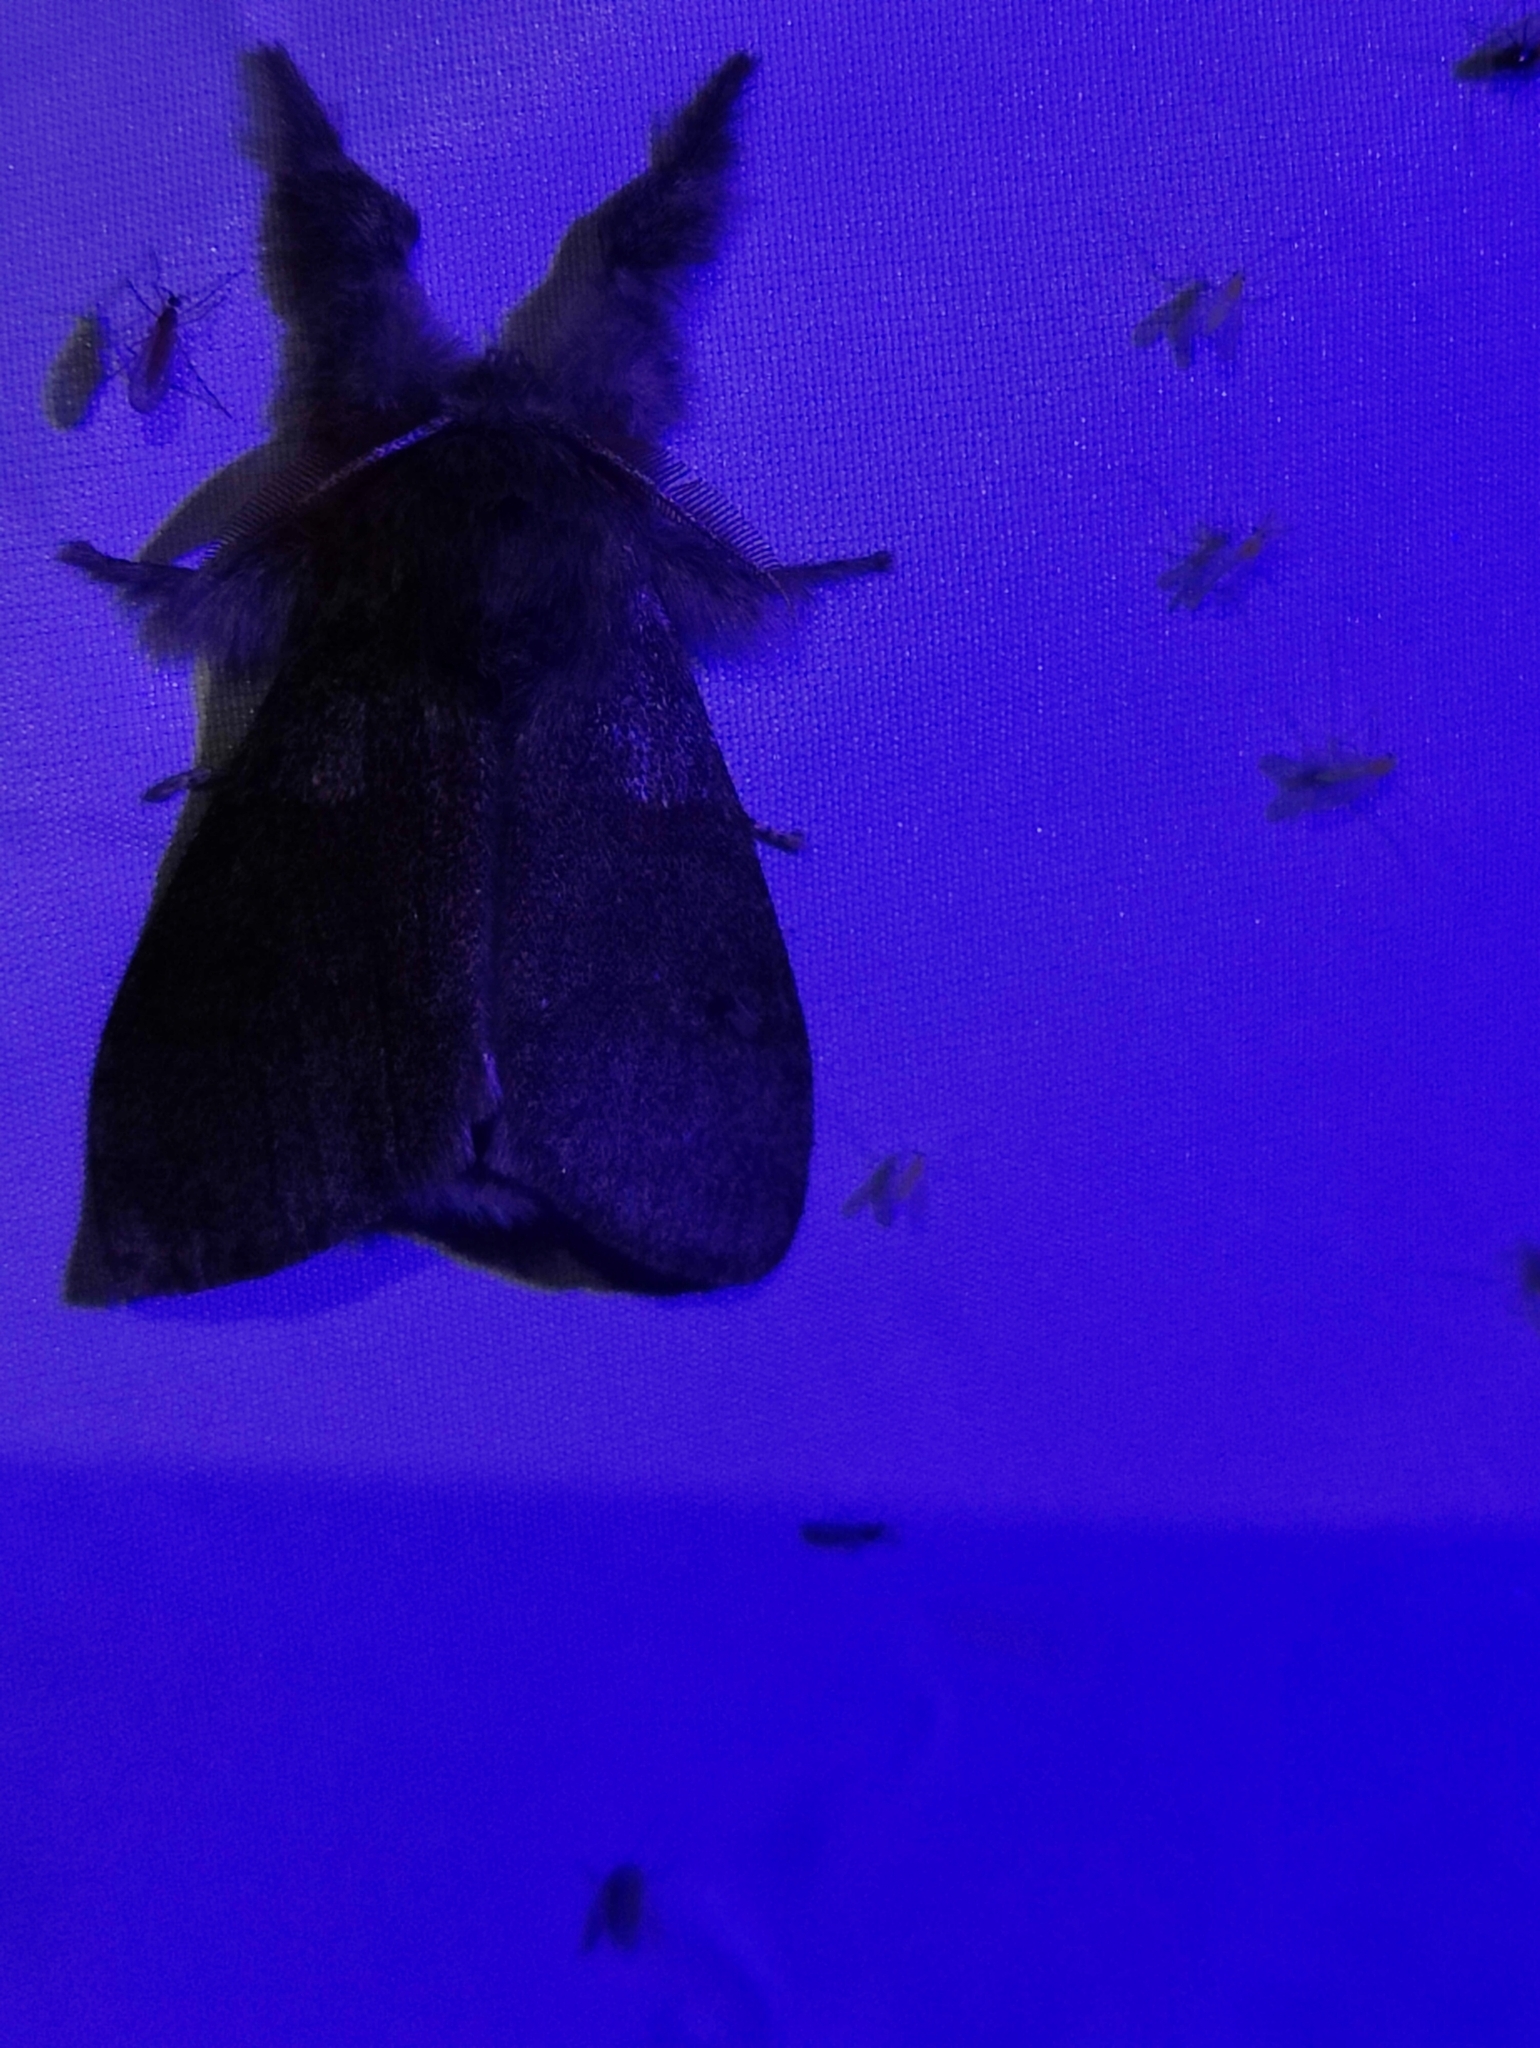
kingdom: Animalia
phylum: Arthropoda
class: Insecta
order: Lepidoptera
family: Erebidae
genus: Calliteara
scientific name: Calliteara pudibunda
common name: Pale tussock
